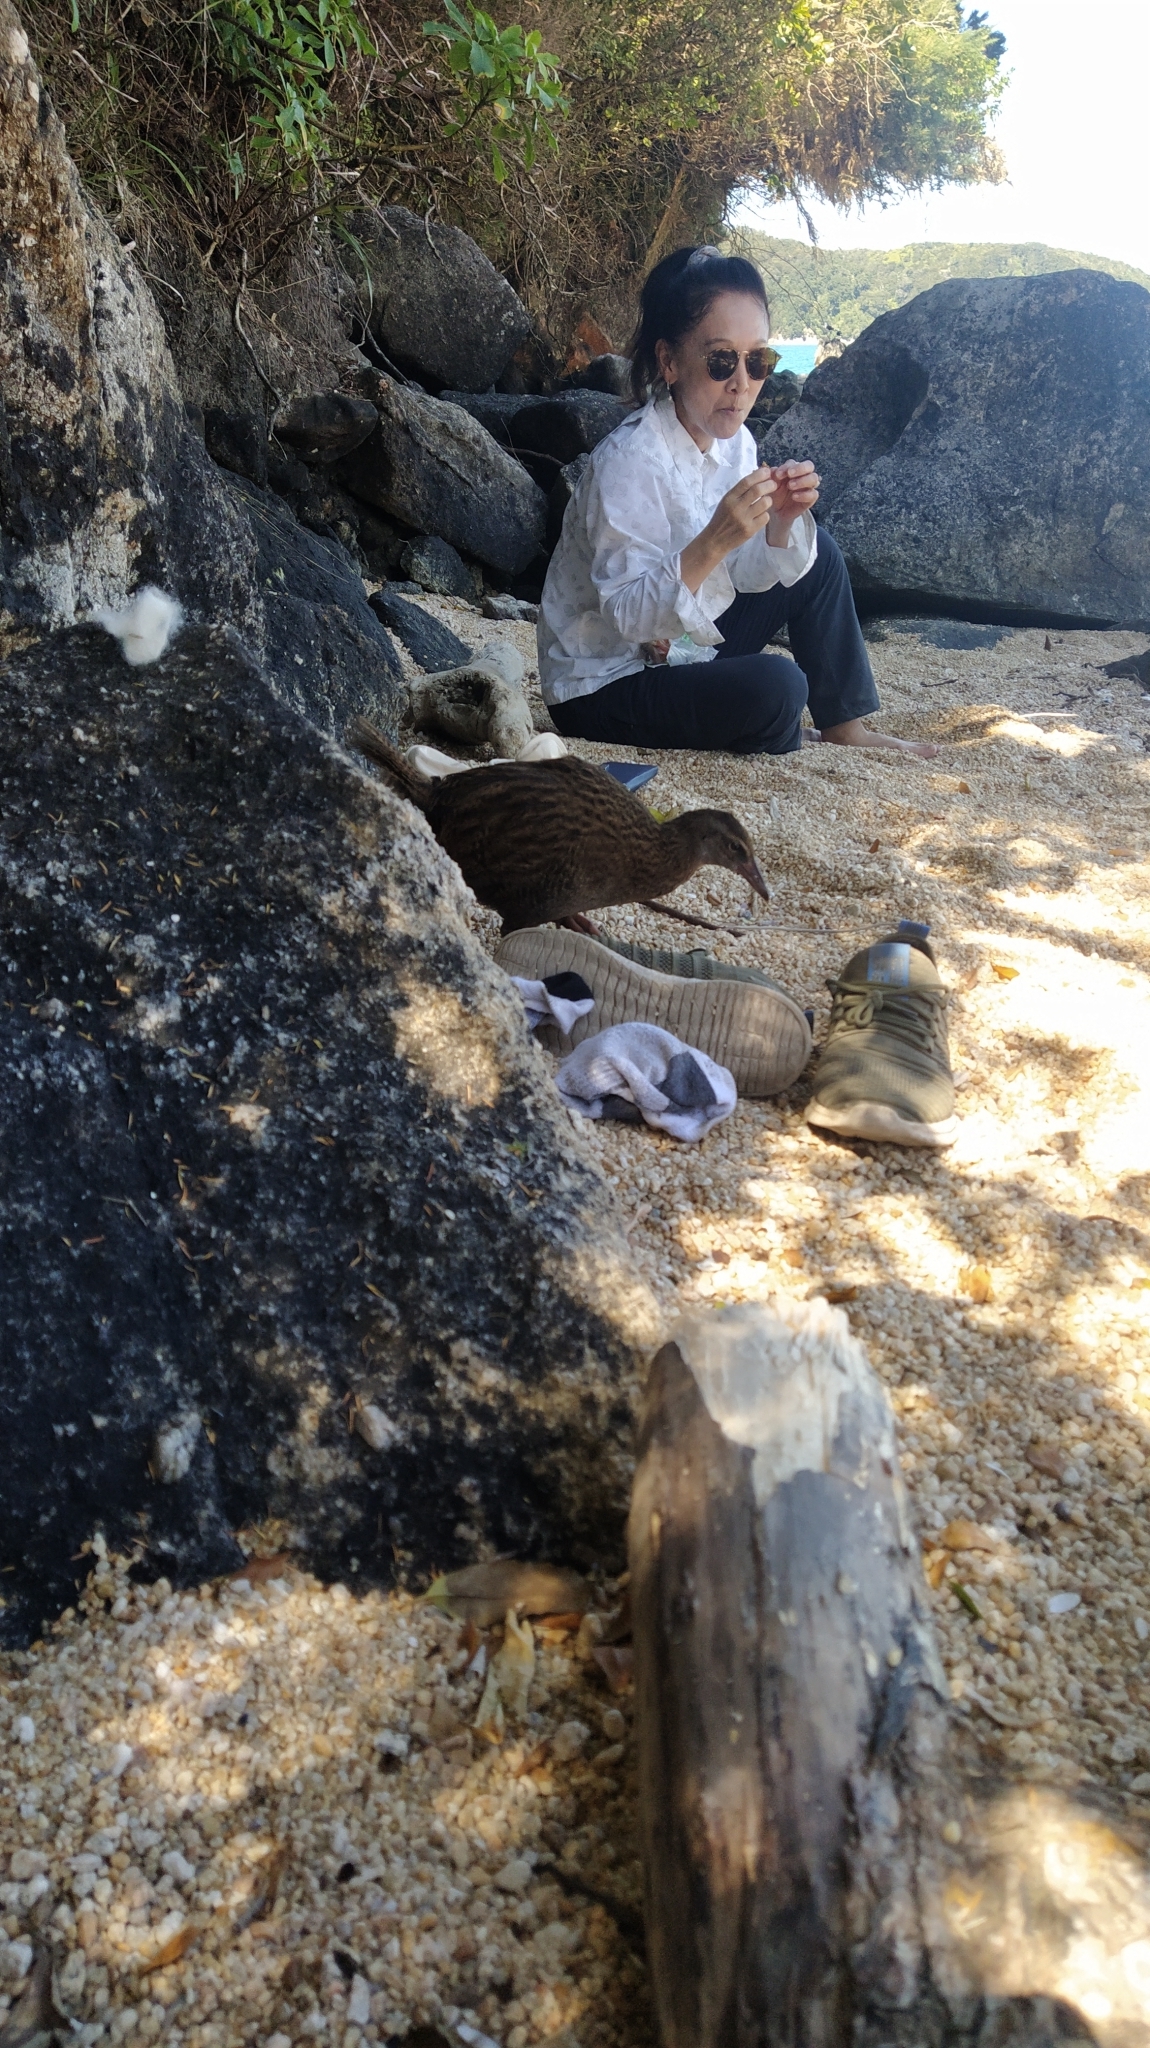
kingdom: Animalia
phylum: Chordata
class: Aves
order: Gruiformes
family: Rallidae
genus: Gallirallus
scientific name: Gallirallus australis
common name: Weka
